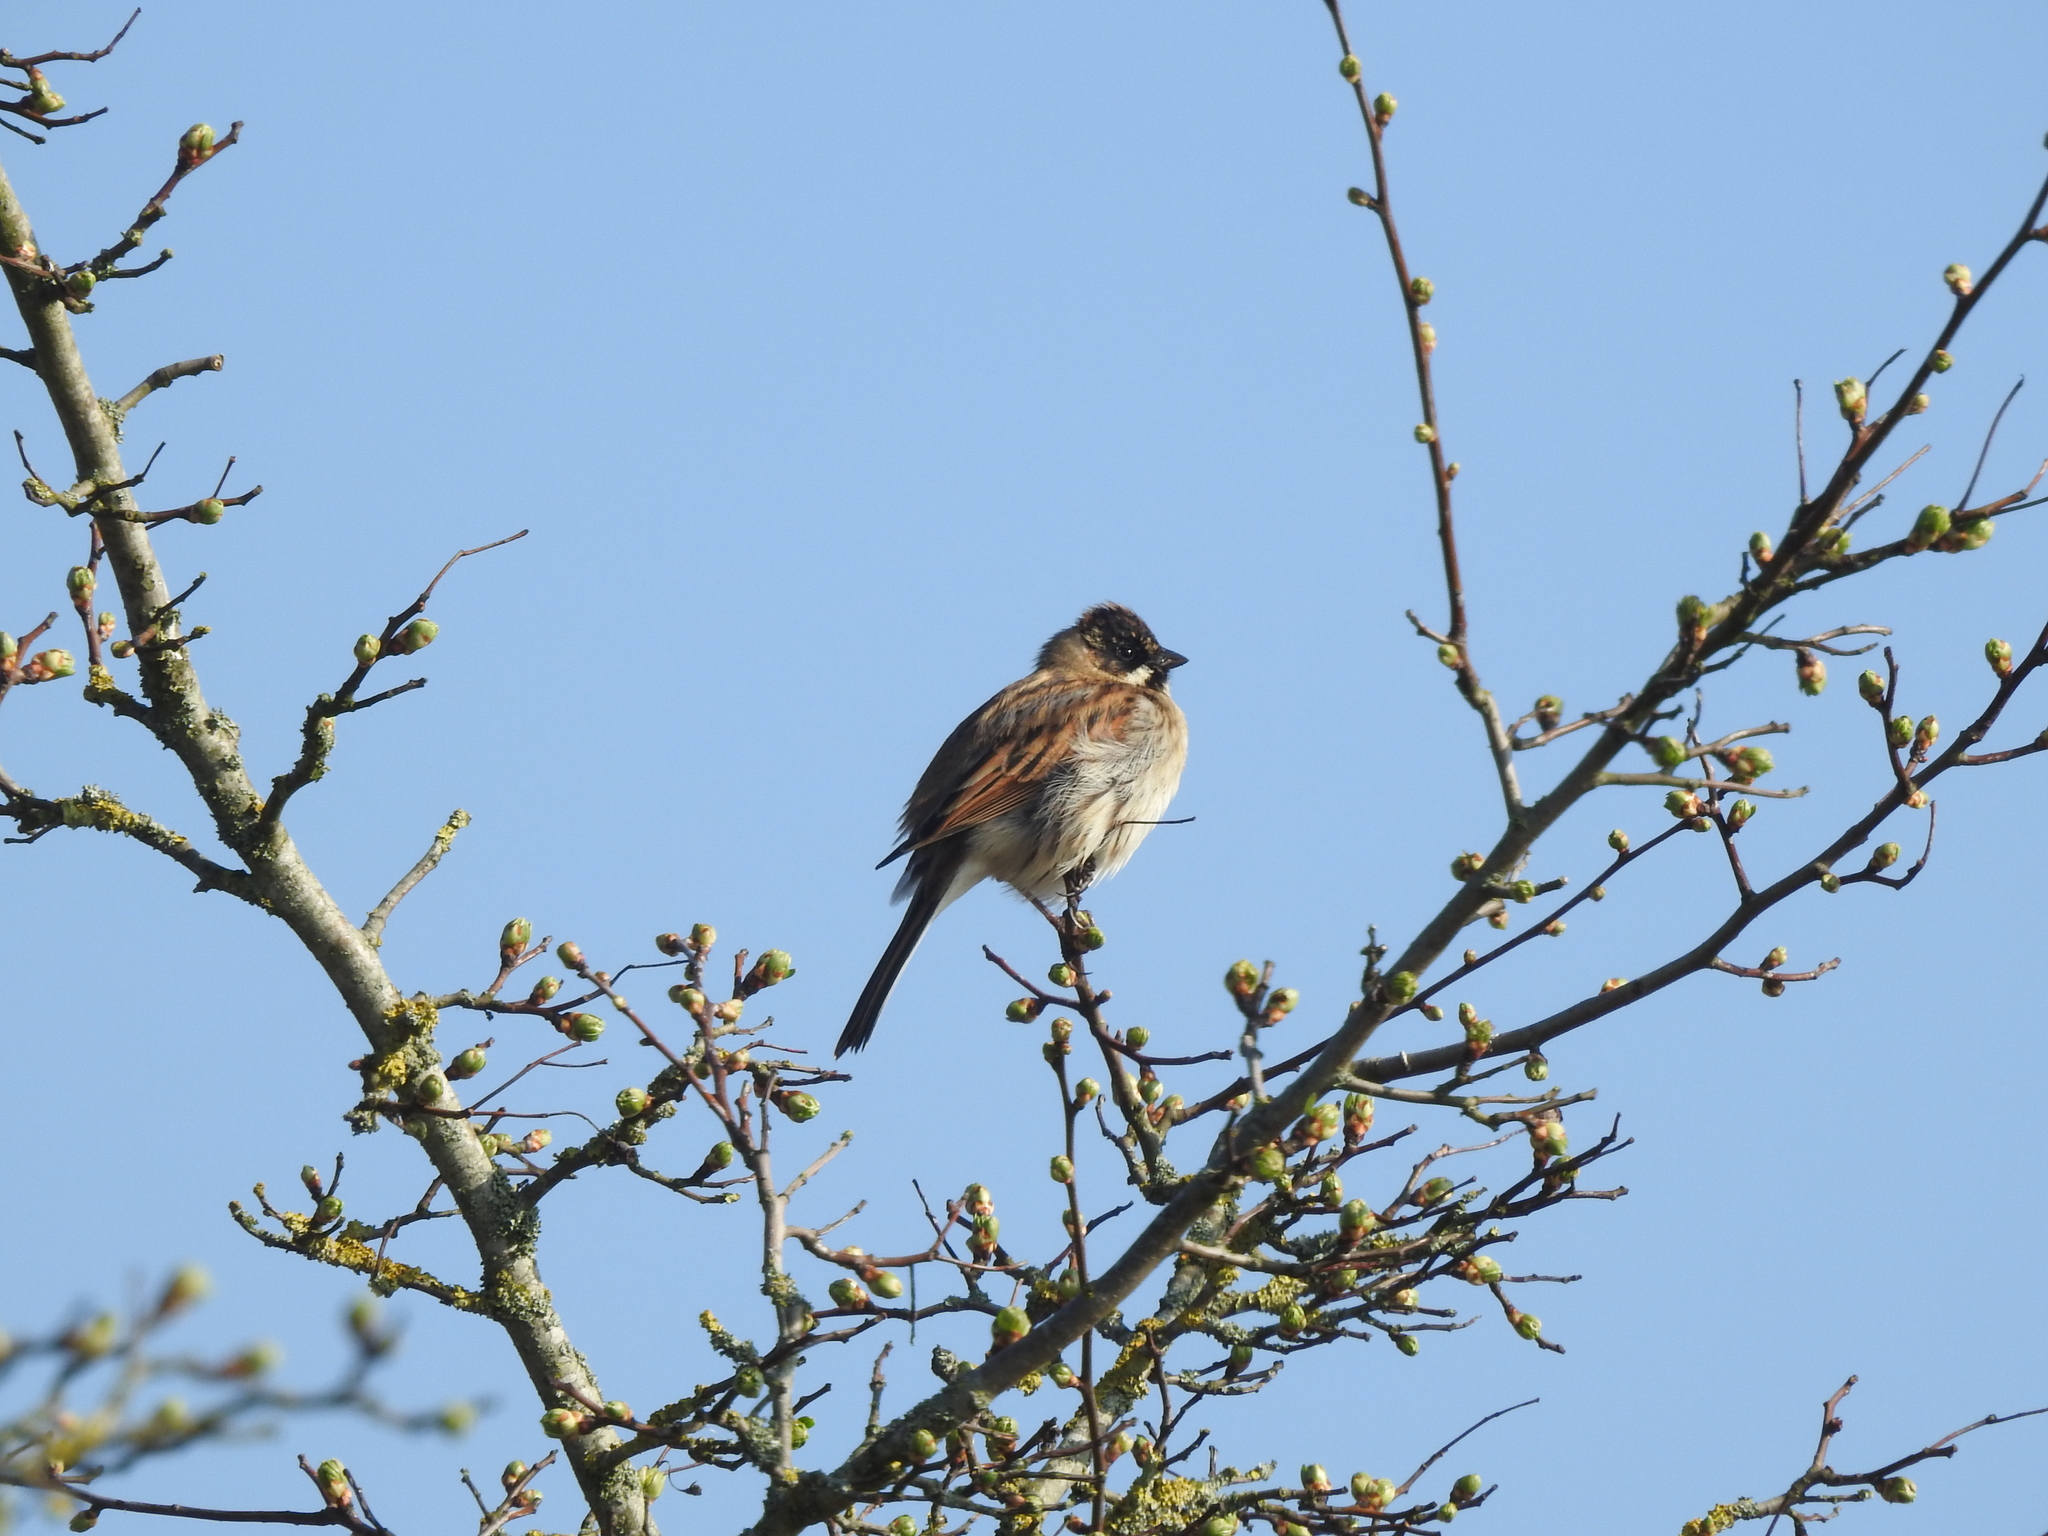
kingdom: Animalia
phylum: Chordata
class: Aves
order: Passeriformes
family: Emberizidae
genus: Emberiza
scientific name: Emberiza schoeniclus
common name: Reed bunting
